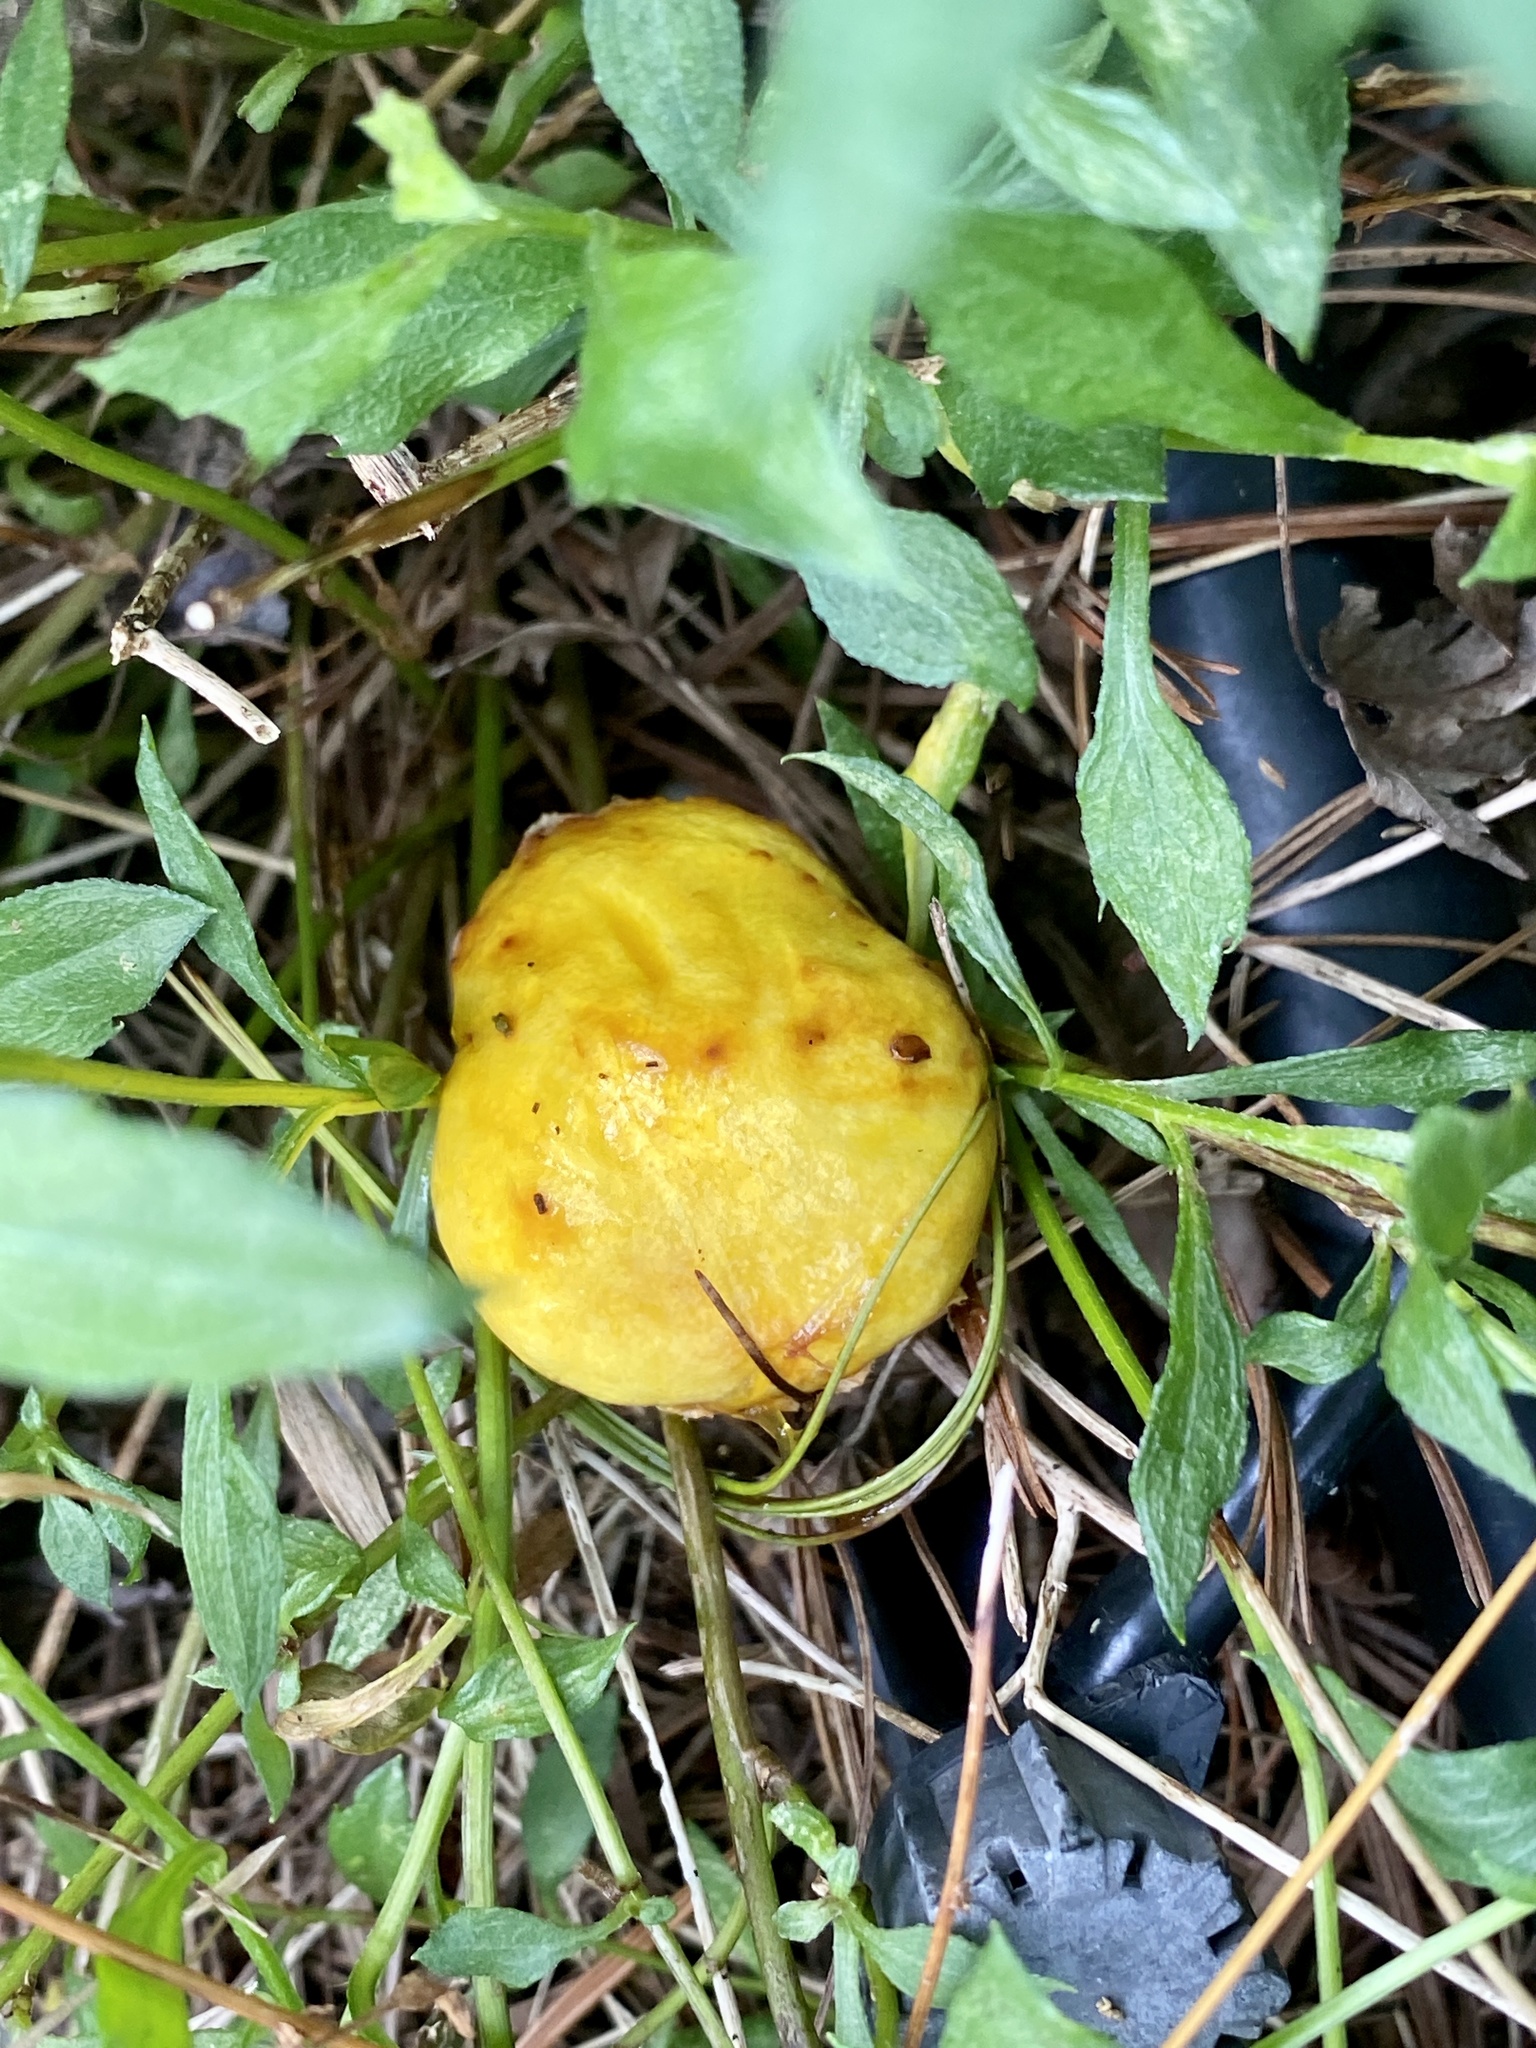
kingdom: Fungi
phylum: Basidiomycota
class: Agaricomycetes
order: Boletales
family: Suillaceae
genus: Suillus
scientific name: Suillus americanus
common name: Chicken fat mushroom
